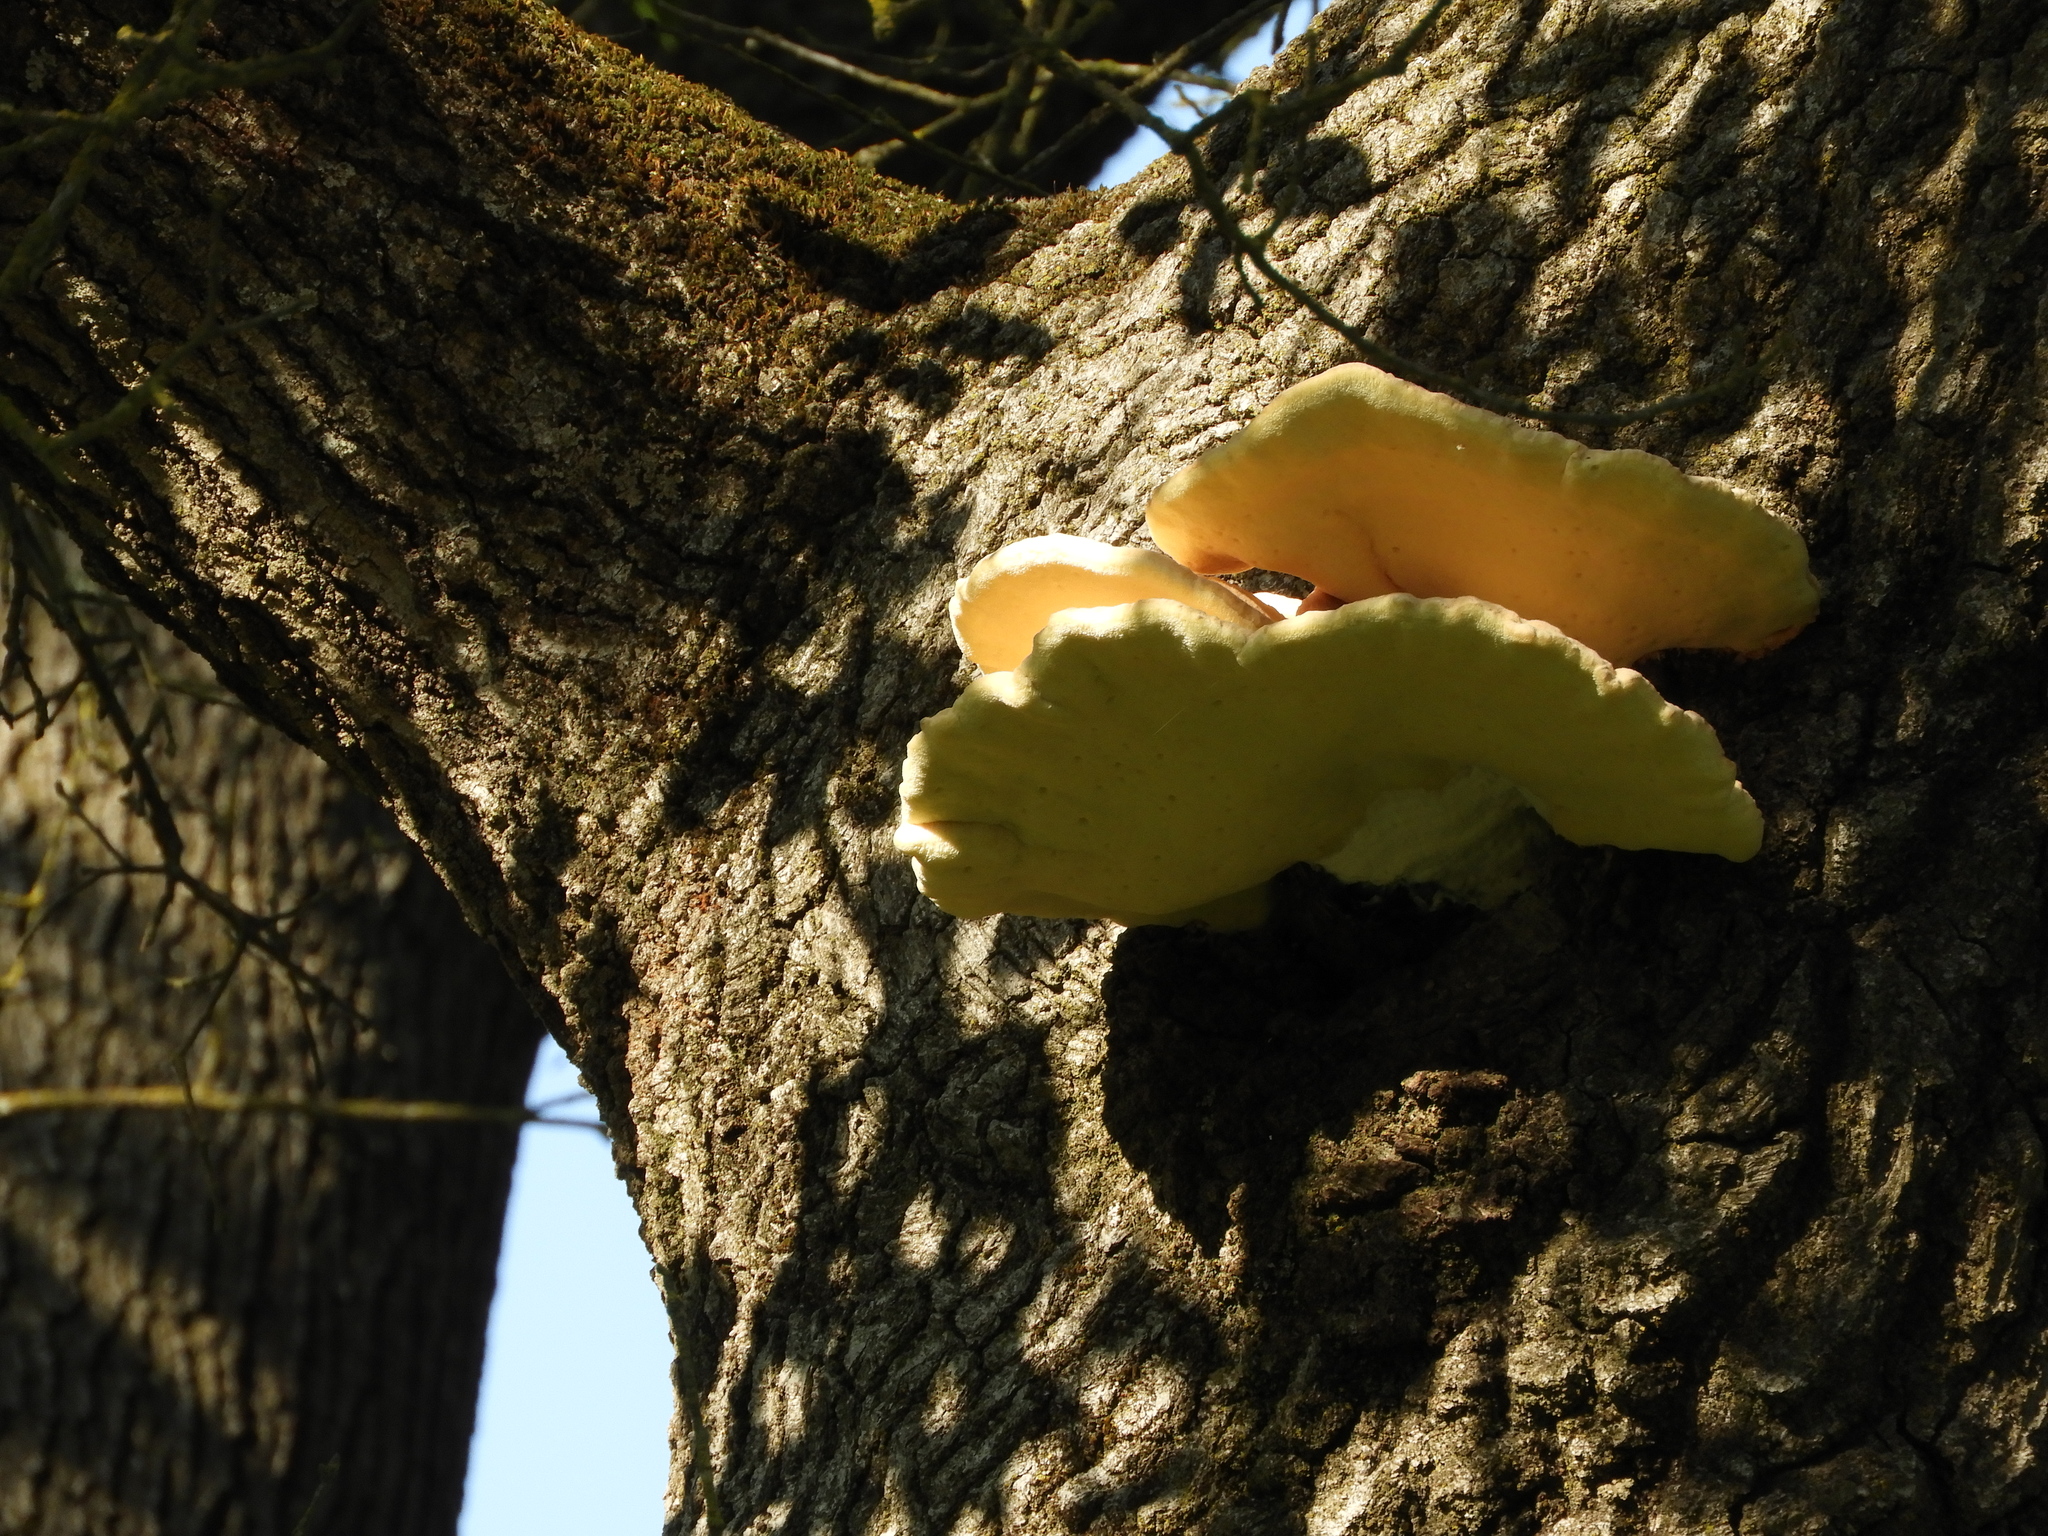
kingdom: Fungi
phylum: Basidiomycota
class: Agaricomycetes
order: Polyporales
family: Laetiporaceae
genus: Laetiporus
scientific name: Laetiporus gilbertsonii
